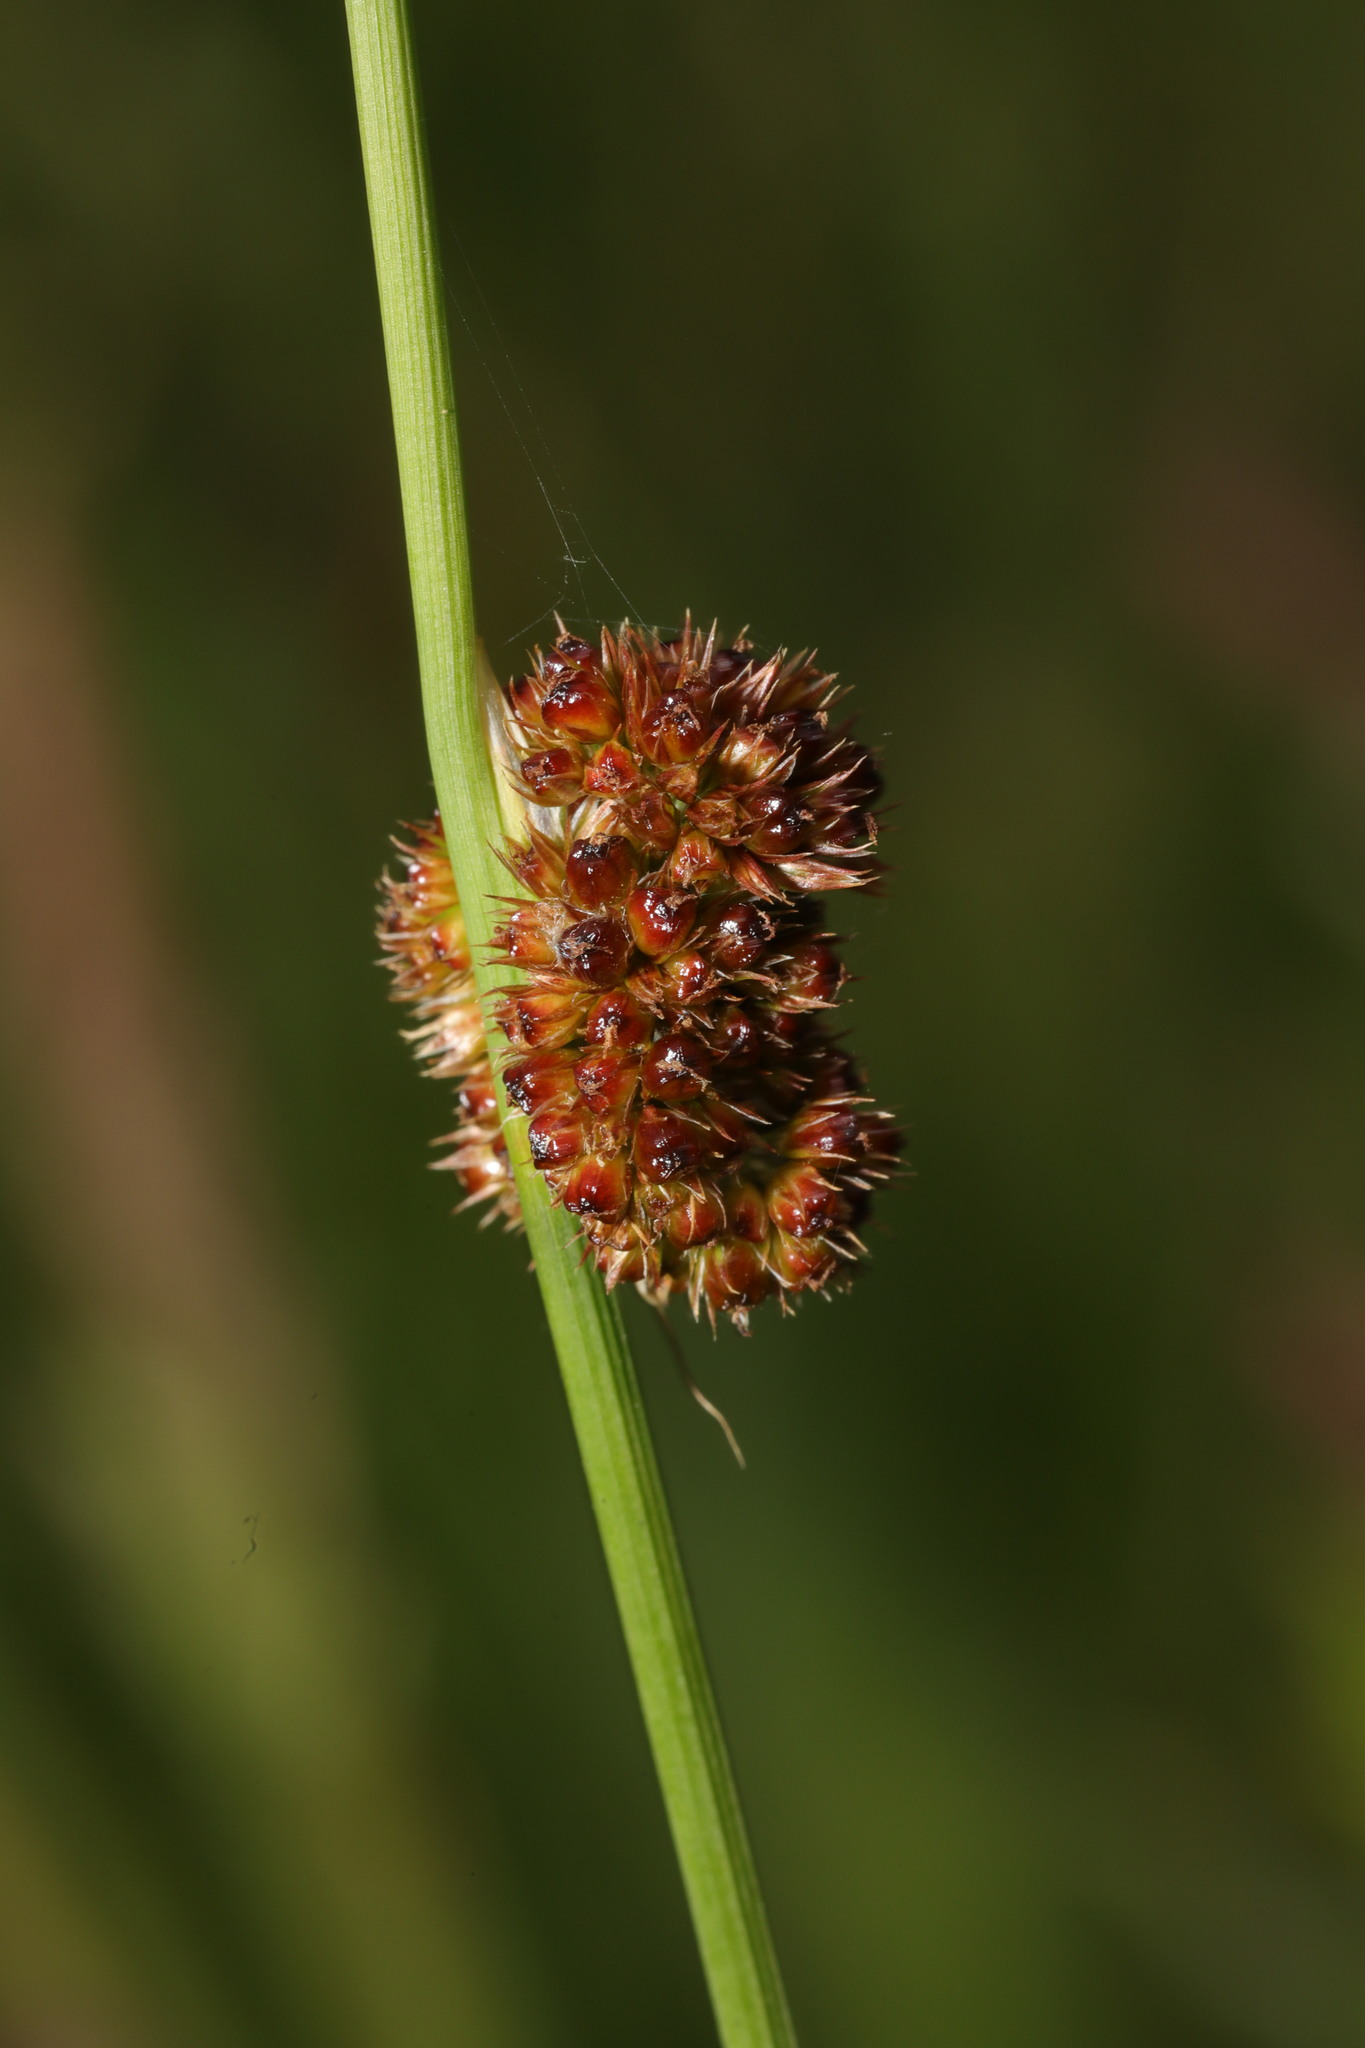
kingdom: Plantae
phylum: Tracheophyta
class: Liliopsida
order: Poales
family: Juncaceae
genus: Juncus
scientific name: Juncus conglomeratus
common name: Compact rush
